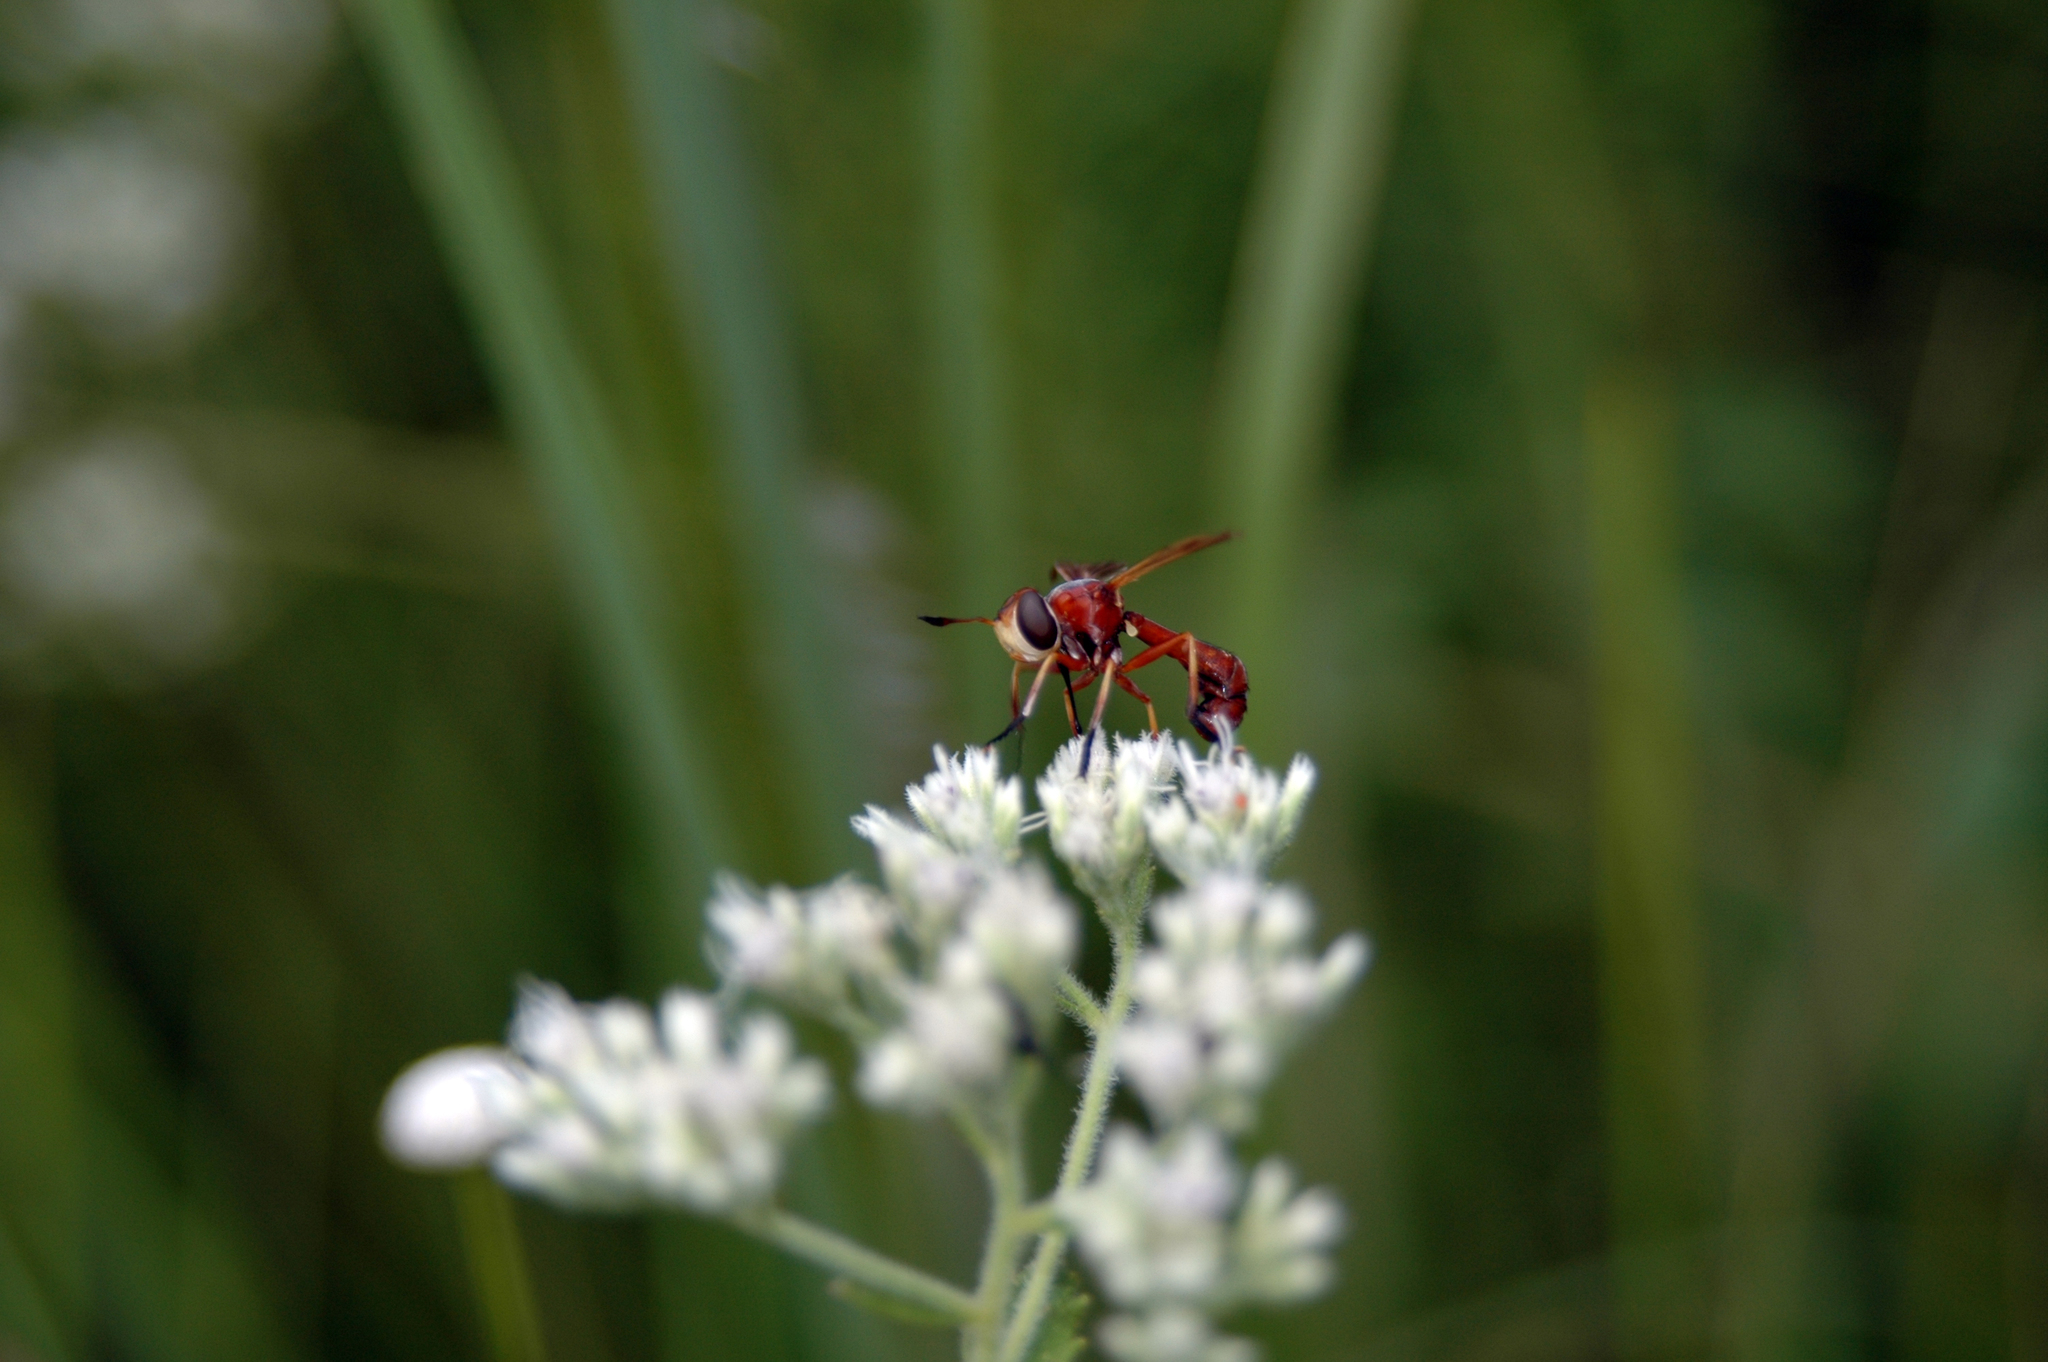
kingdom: Animalia
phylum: Arthropoda
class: Insecta
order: Diptera
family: Conopidae
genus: Physoconops
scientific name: Physoconops fronto
